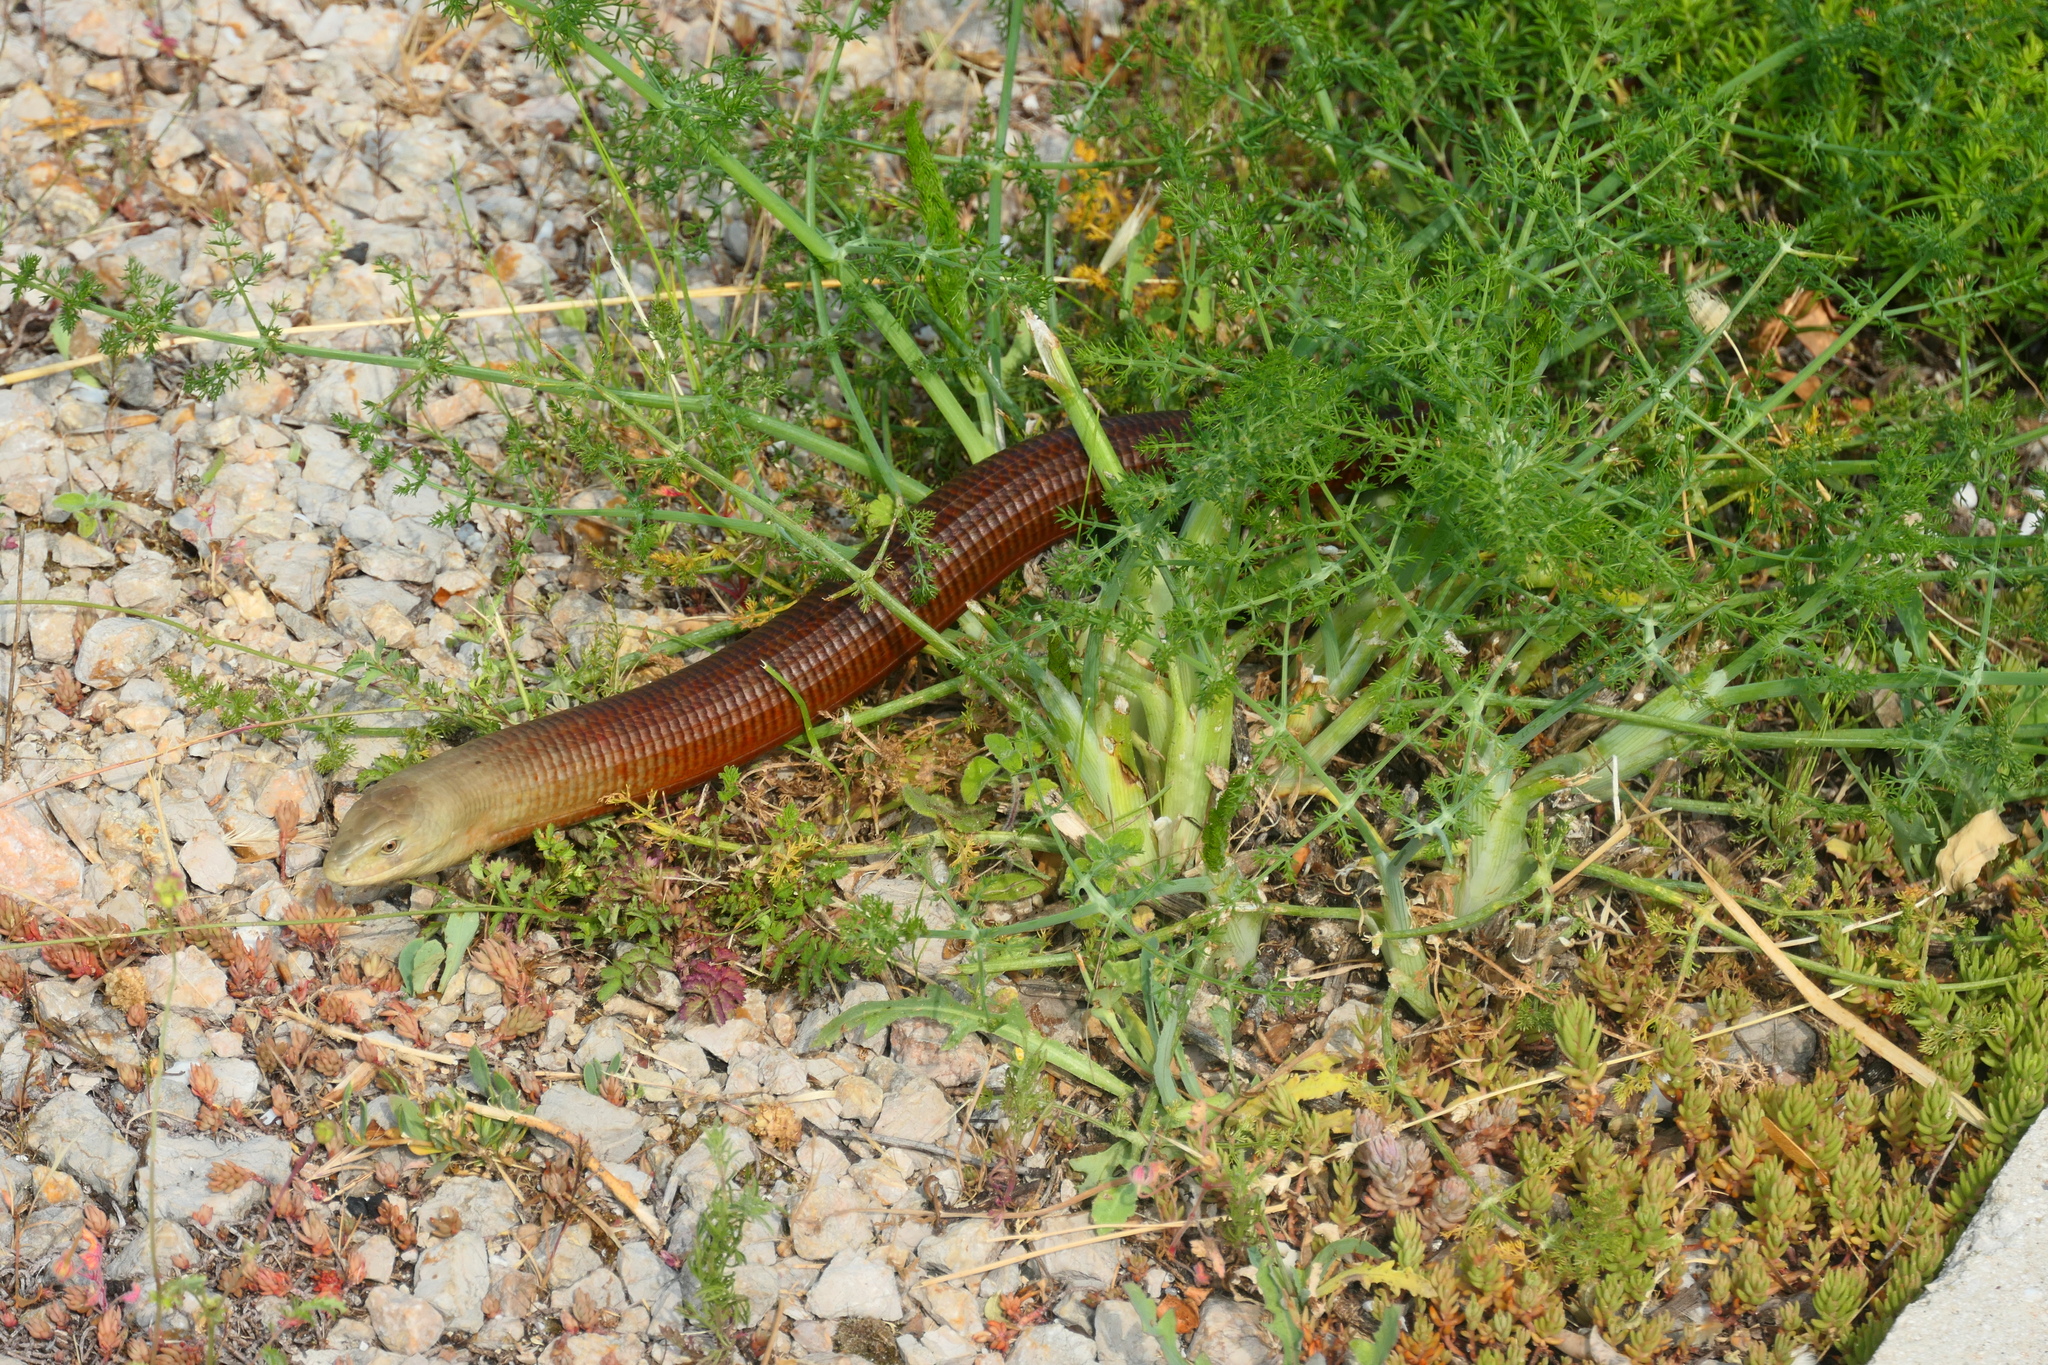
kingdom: Animalia
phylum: Chordata
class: Squamata
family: Anguidae
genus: Pseudopus
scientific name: Pseudopus apodus
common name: European glass lizard
